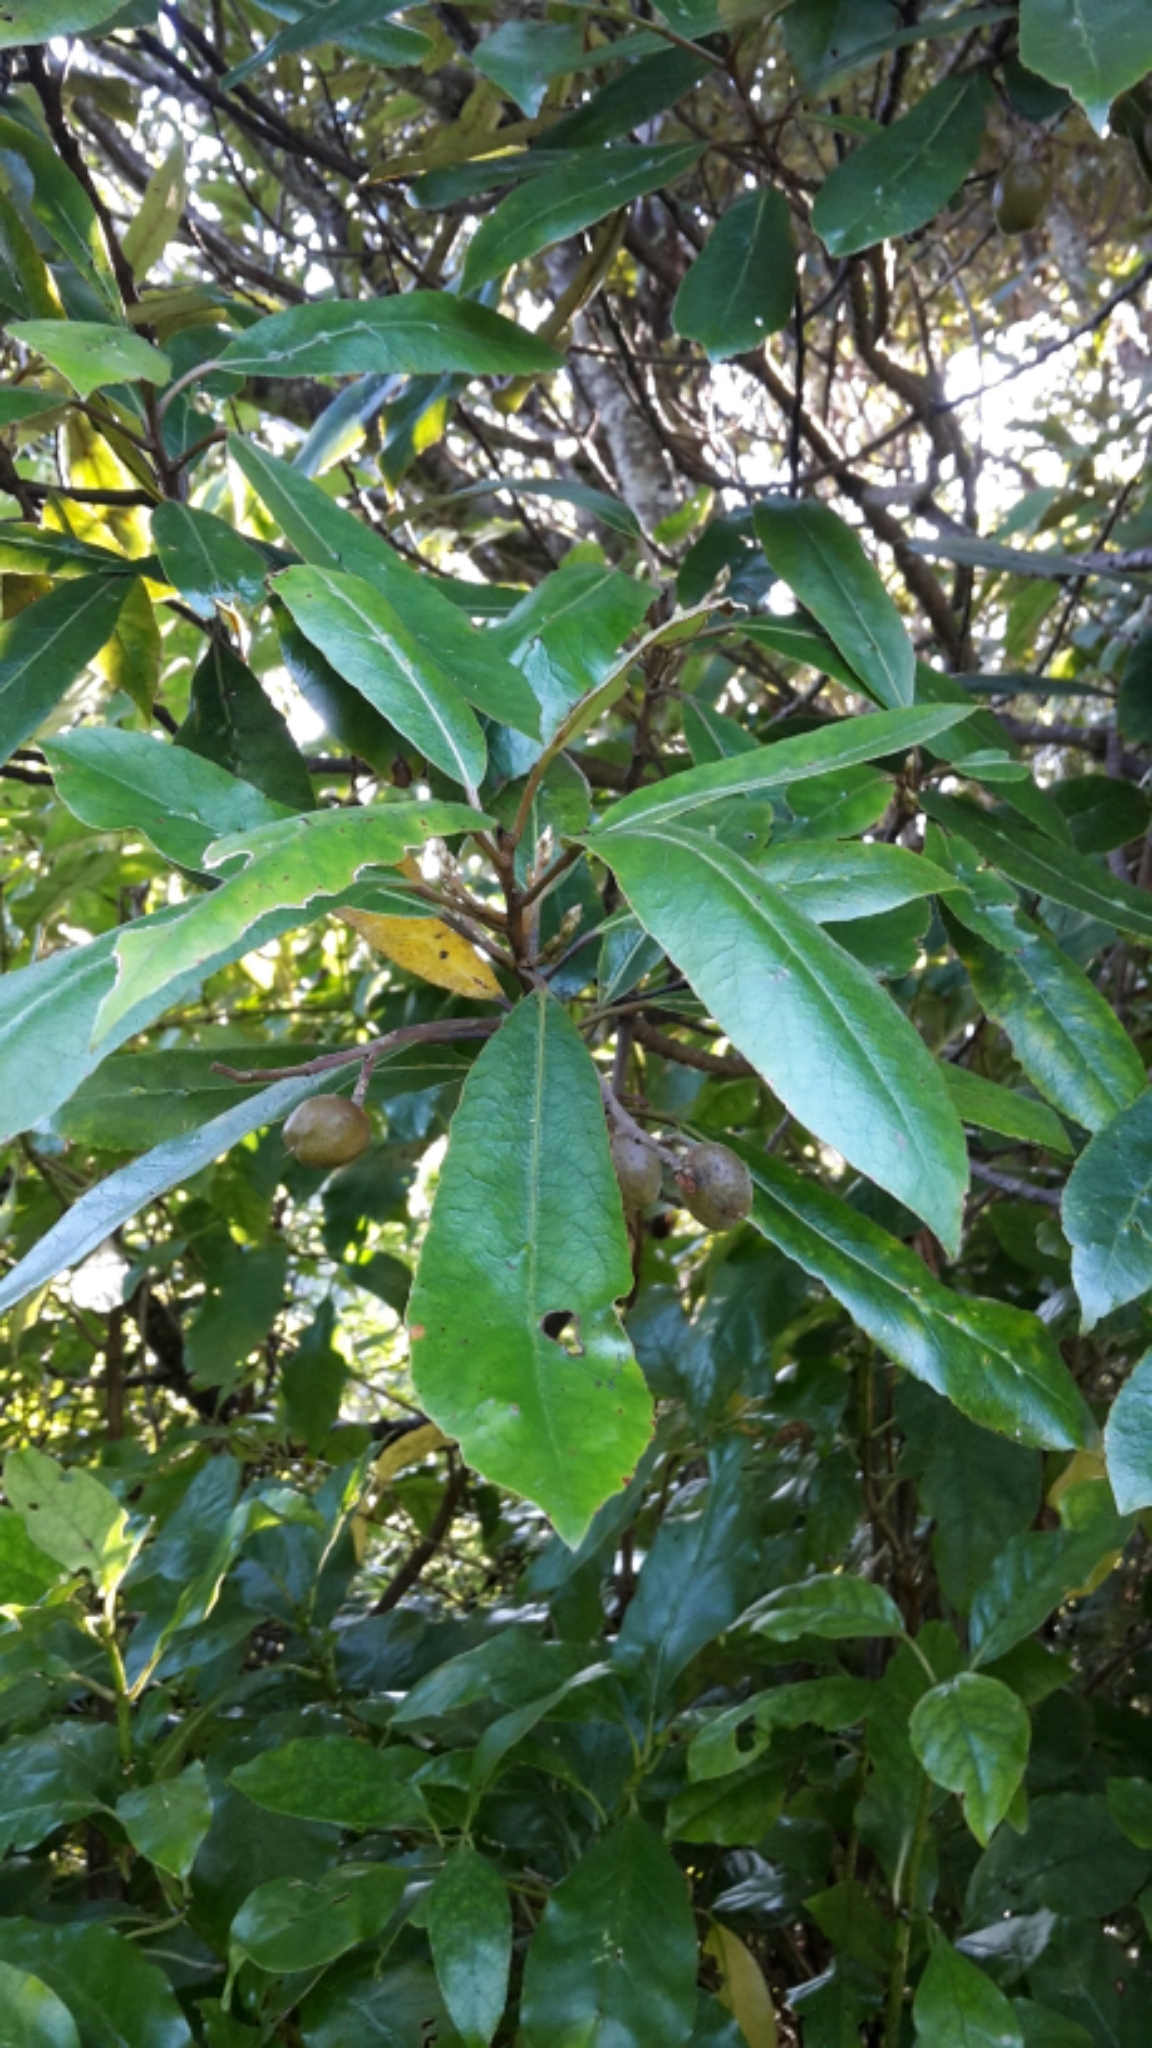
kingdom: Plantae
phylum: Tracheophyta
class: Magnoliopsida
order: Oxalidales
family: Elaeocarpaceae
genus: Elaeocarpus
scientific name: Elaeocarpus dentatus
